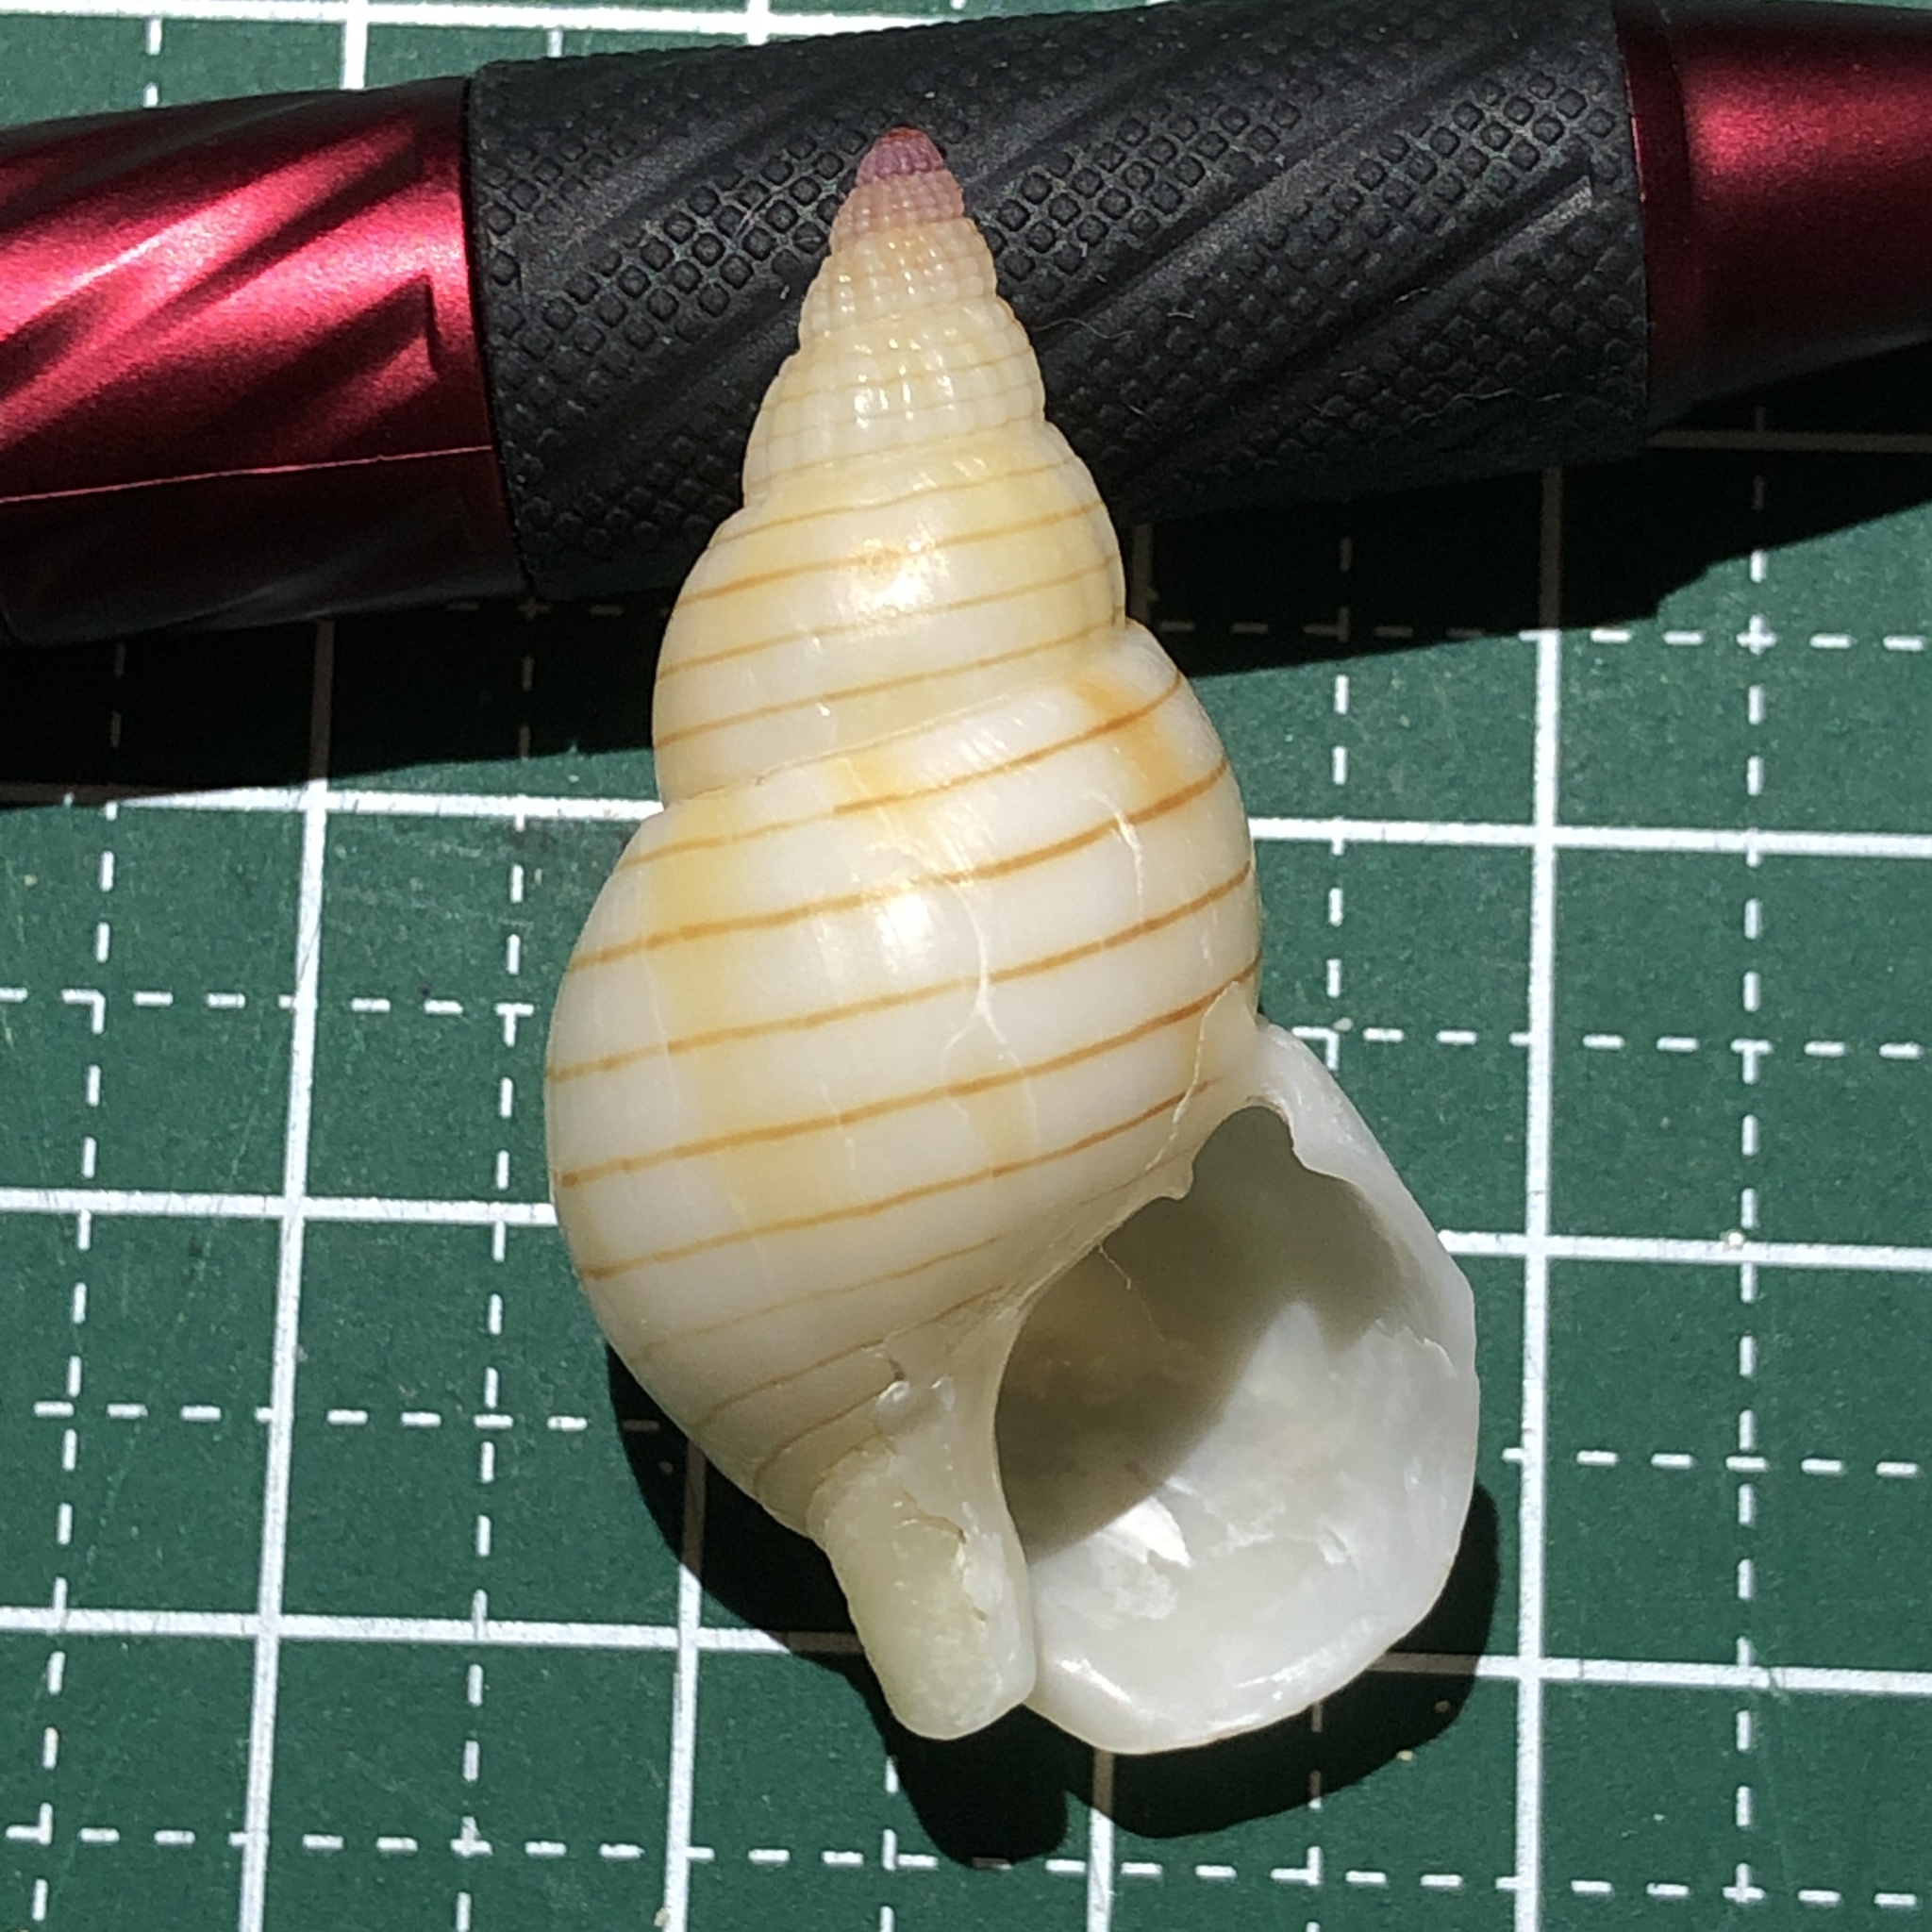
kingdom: Animalia
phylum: Mollusca
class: Gastropoda
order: Neogastropoda
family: Nassariidae
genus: Nassarius
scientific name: Nassarius glans
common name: Glans nassa
